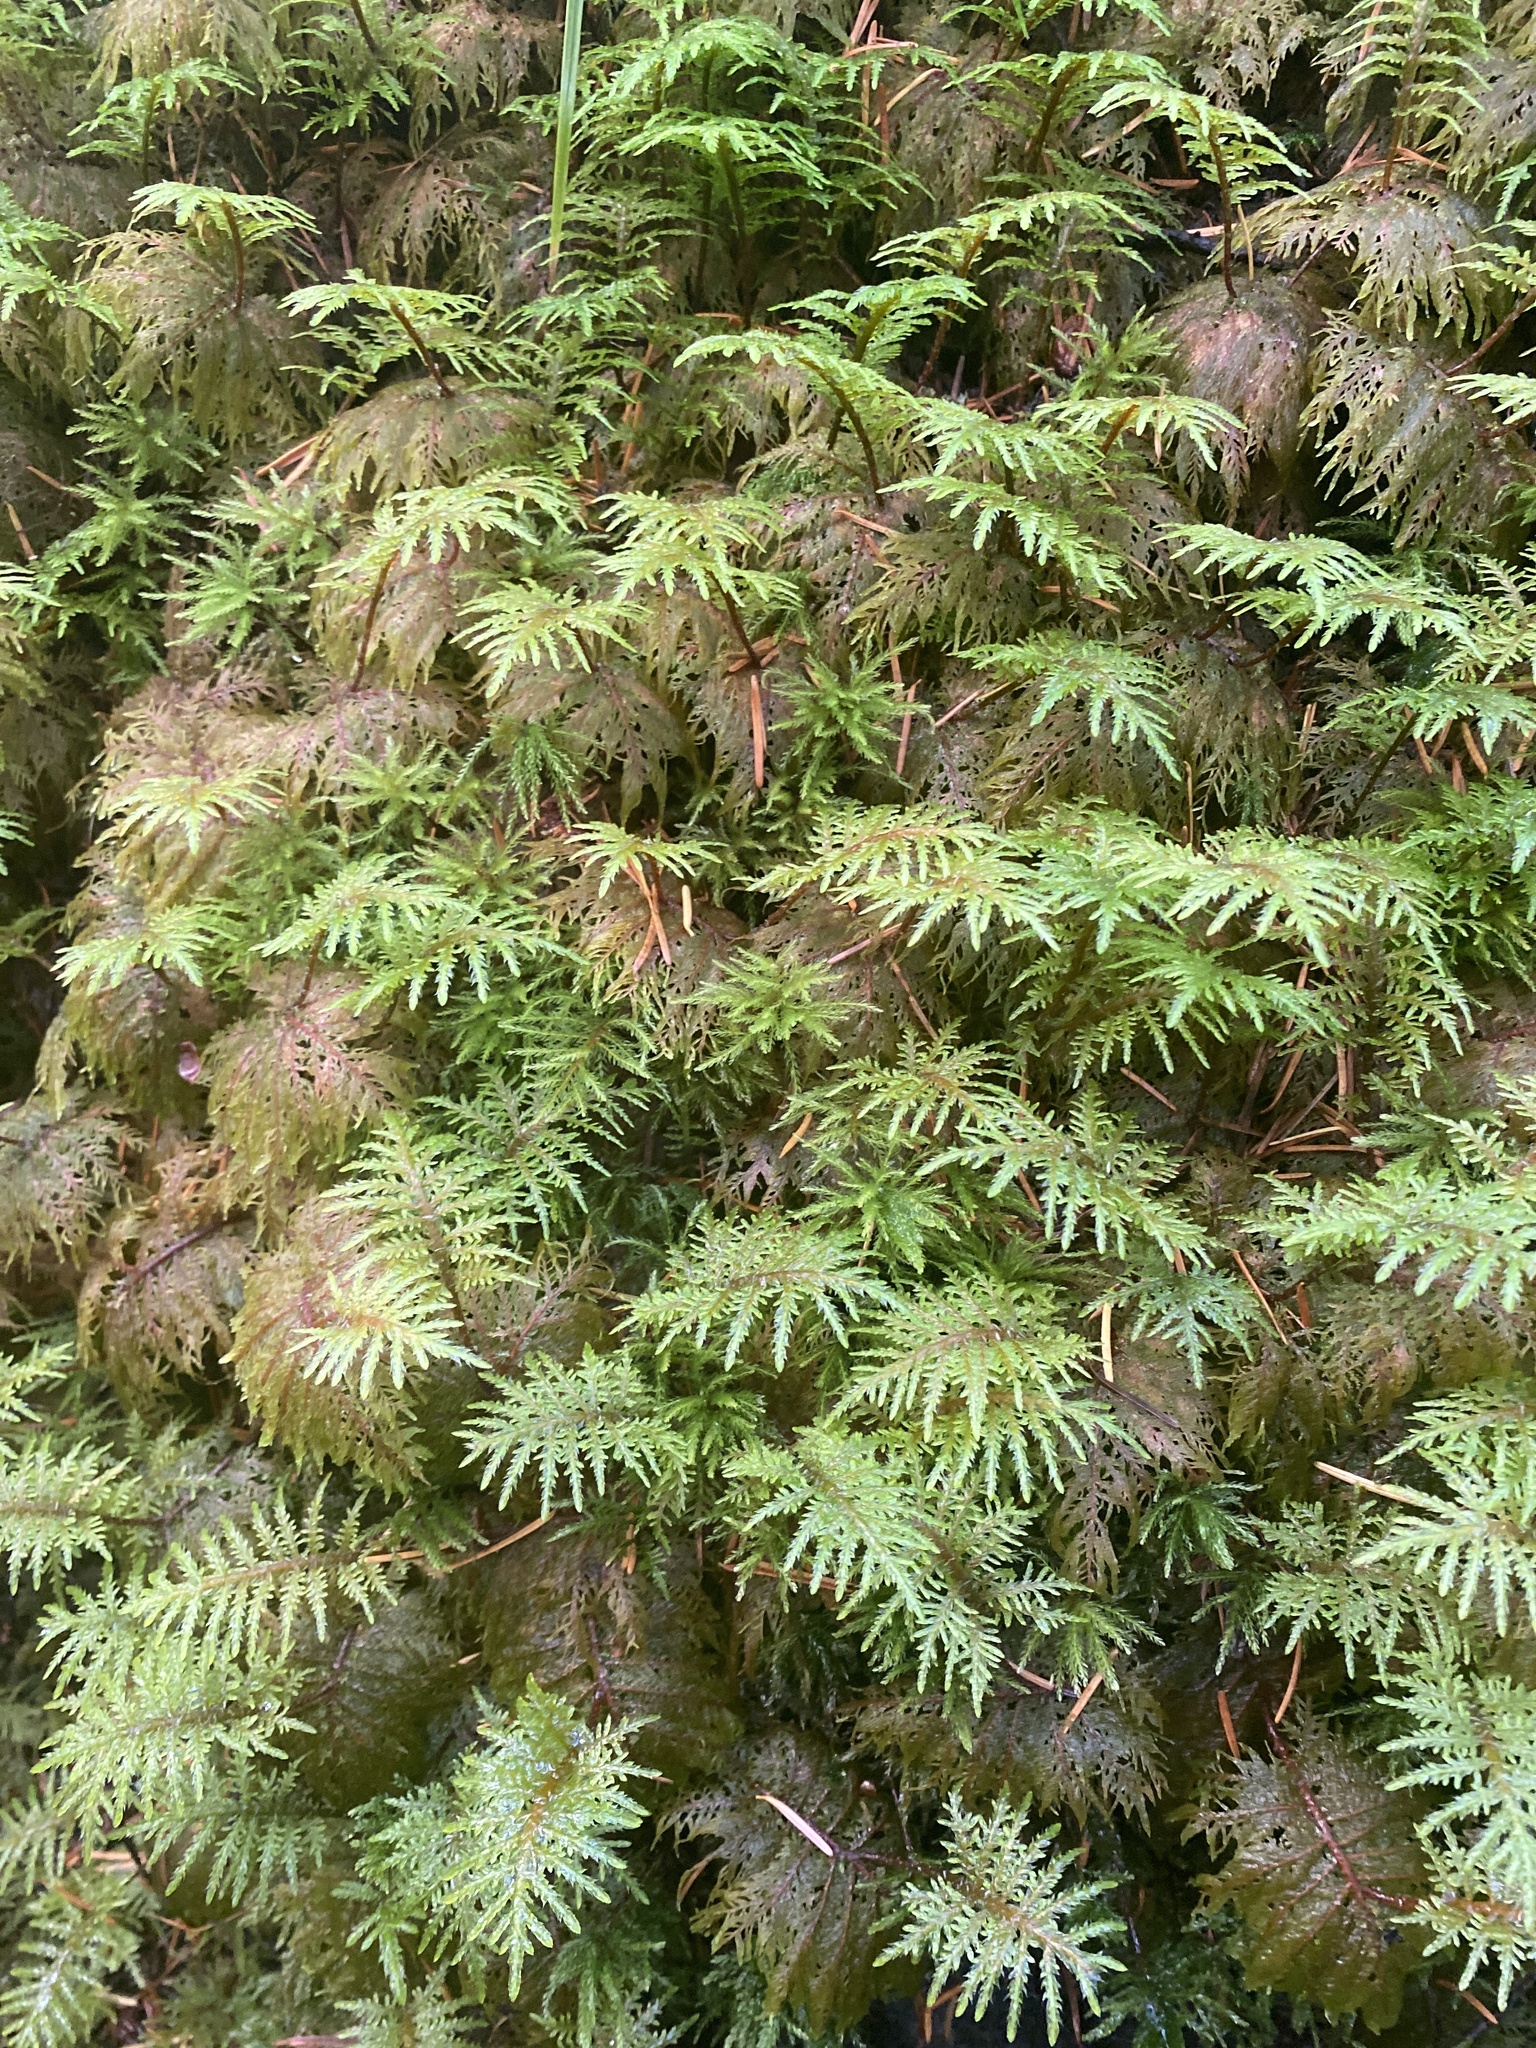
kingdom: Plantae
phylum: Bryophyta
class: Bryopsida
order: Hypnales
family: Hylocomiaceae
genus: Hylocomium
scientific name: Hylocomium splendens
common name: Stairstep moss
